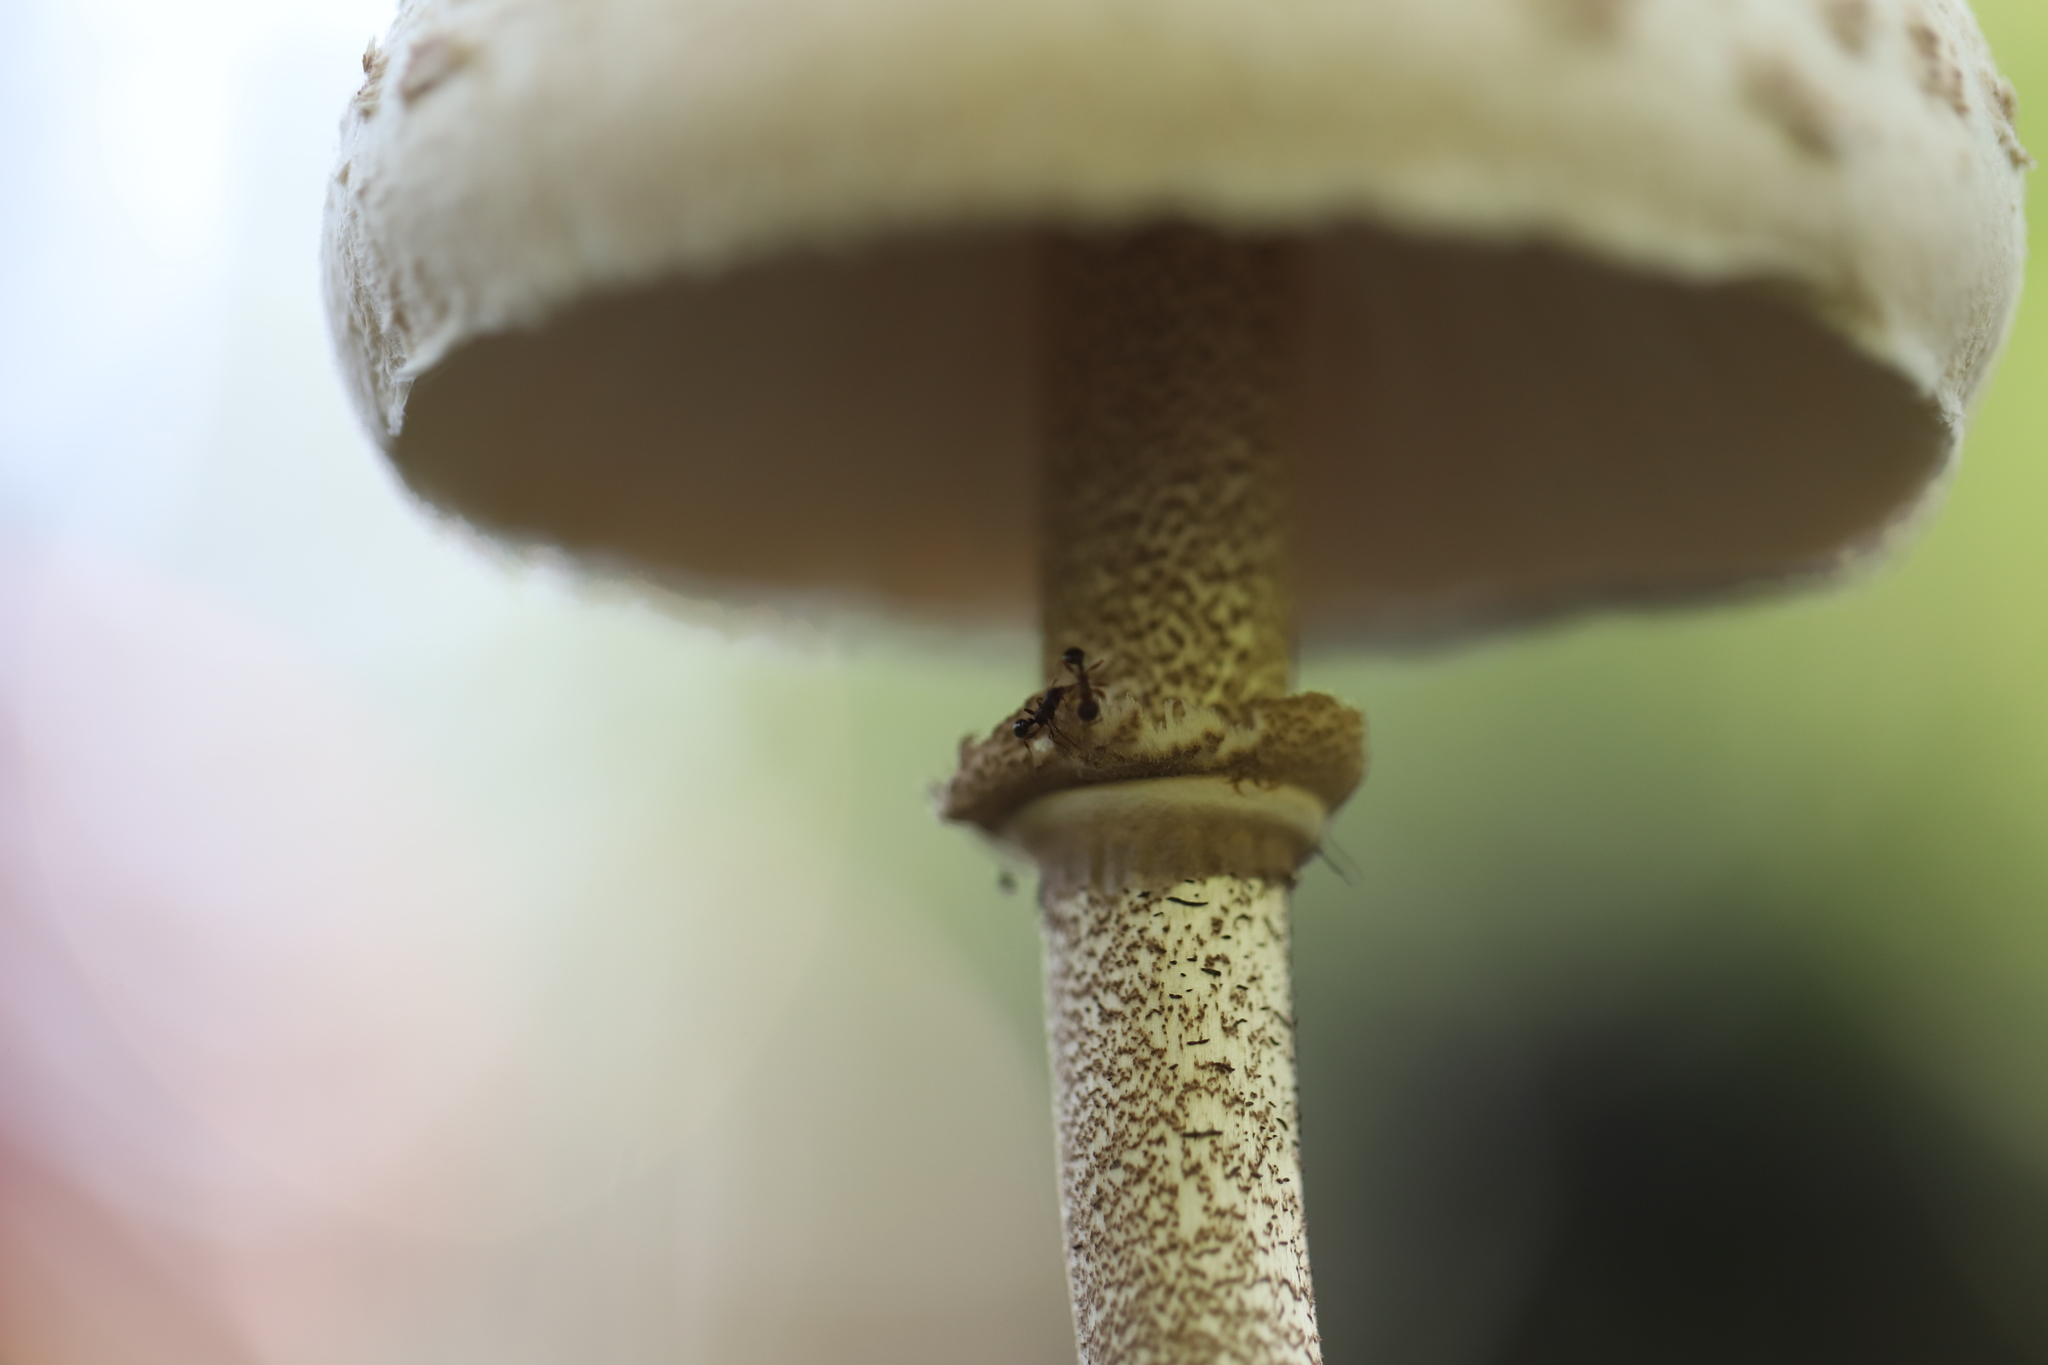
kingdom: Animalia
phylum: Arthropoda
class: Insecta
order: Hymenoptera
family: Formicidae
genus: Tetramorium
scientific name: Tetramorium immigrans
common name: Pavement ant
